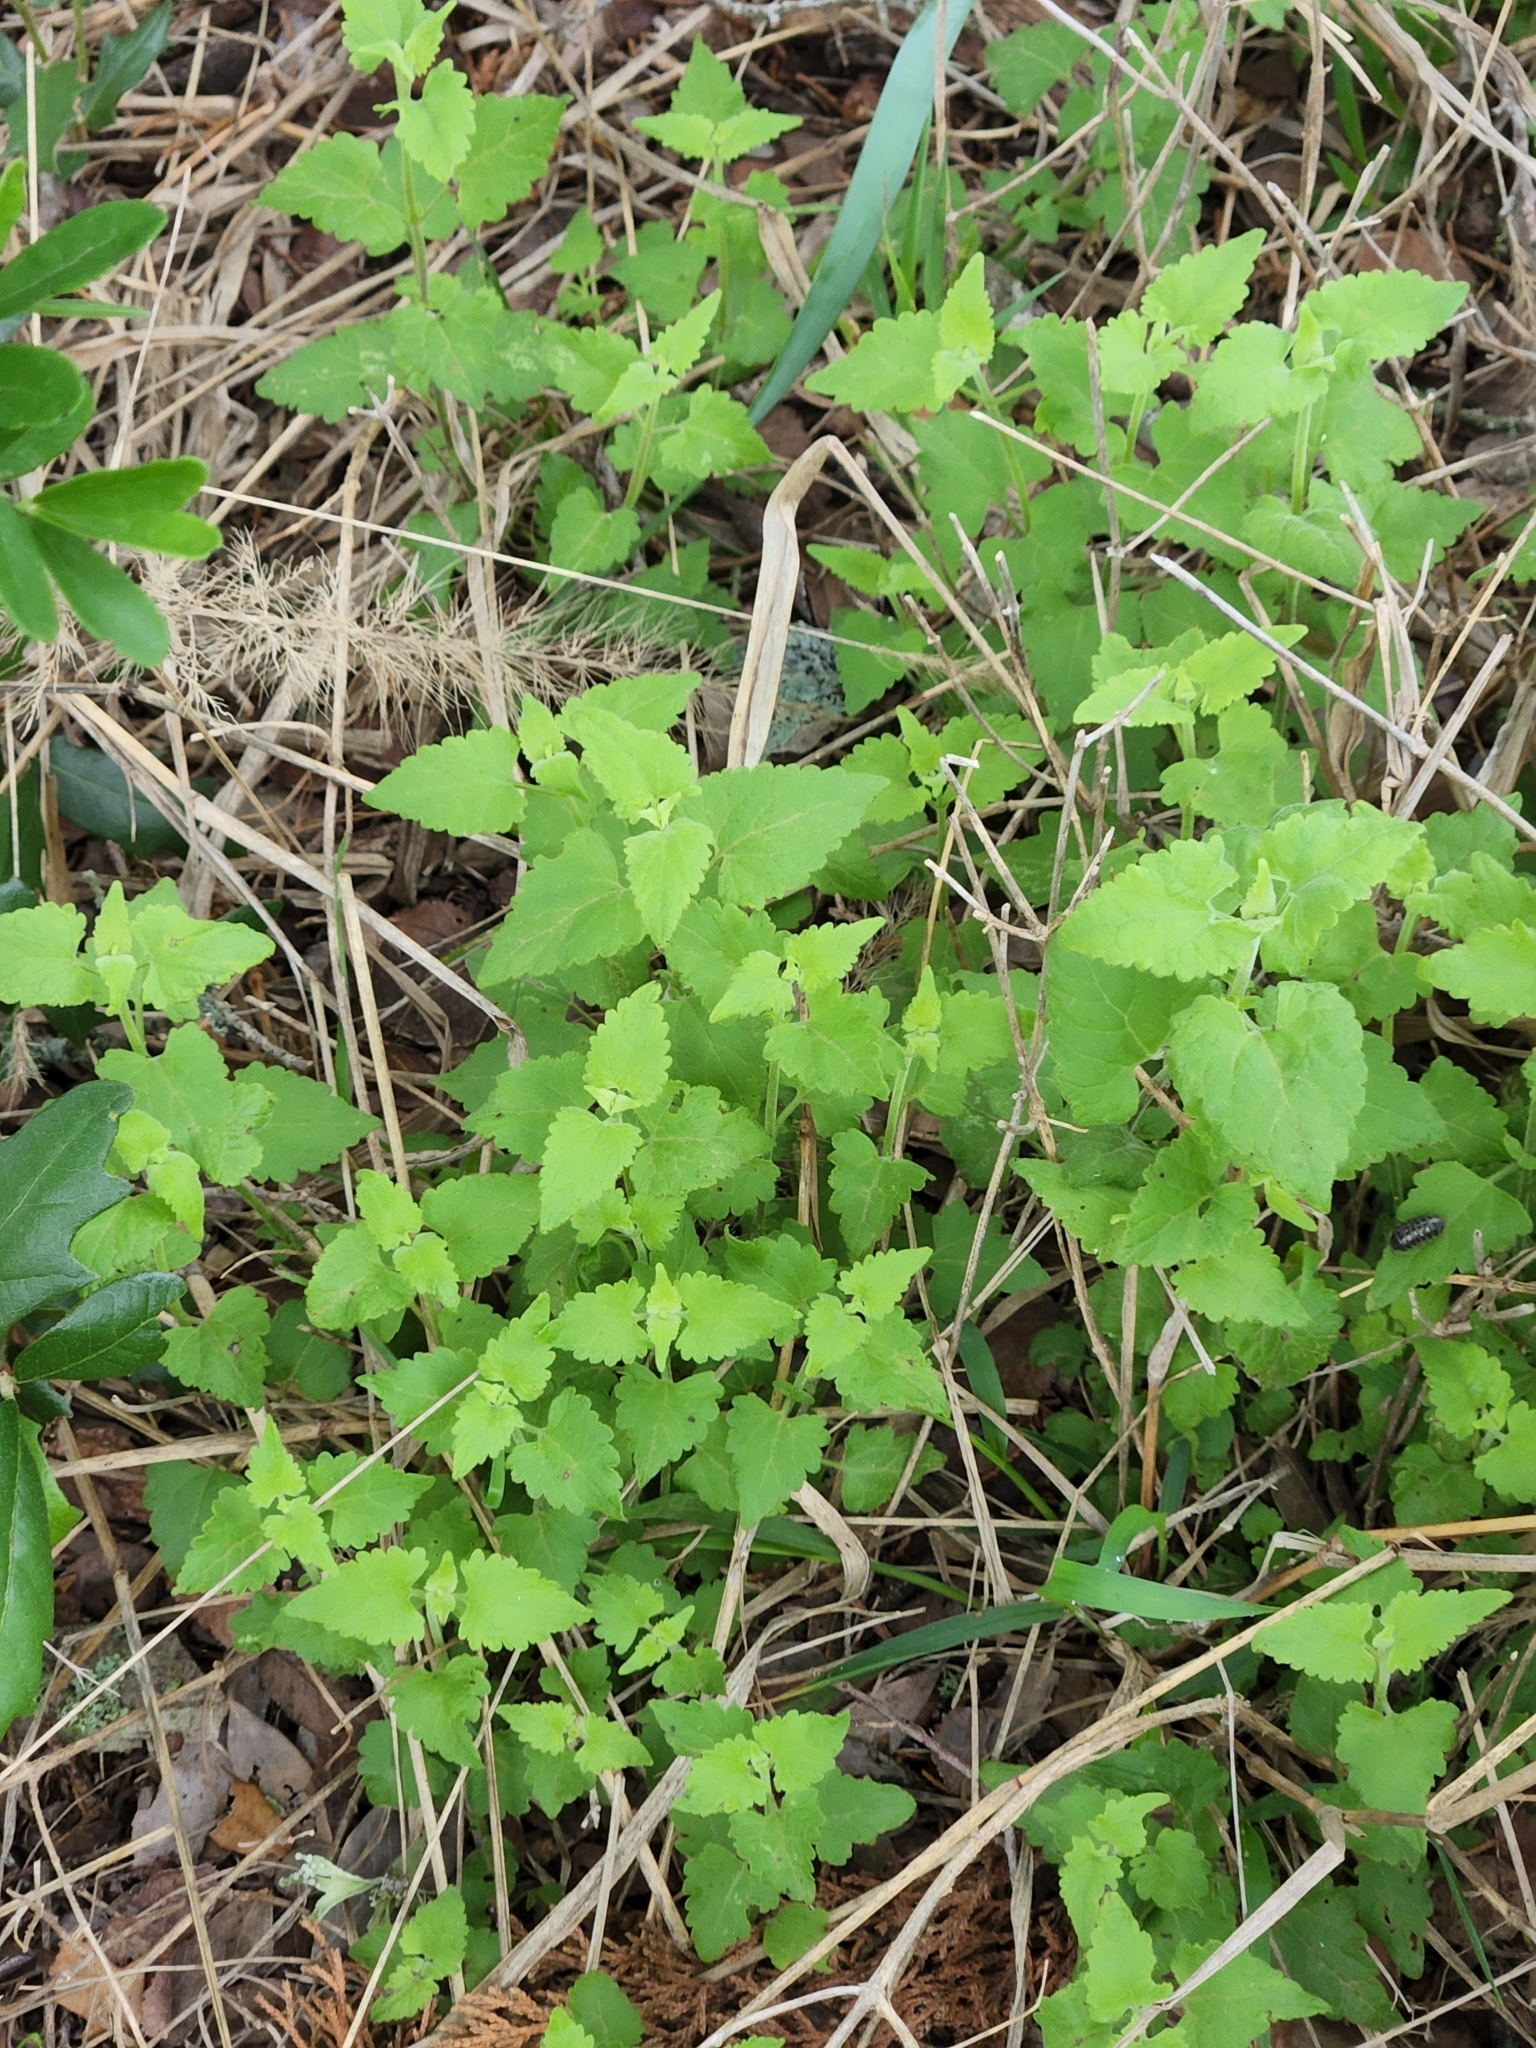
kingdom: Plantae
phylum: Tracheophyta
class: Magnoliopsida
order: Asterales
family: Asteraceae
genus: Fleischmannia
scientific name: Fleischmannia incarnata
